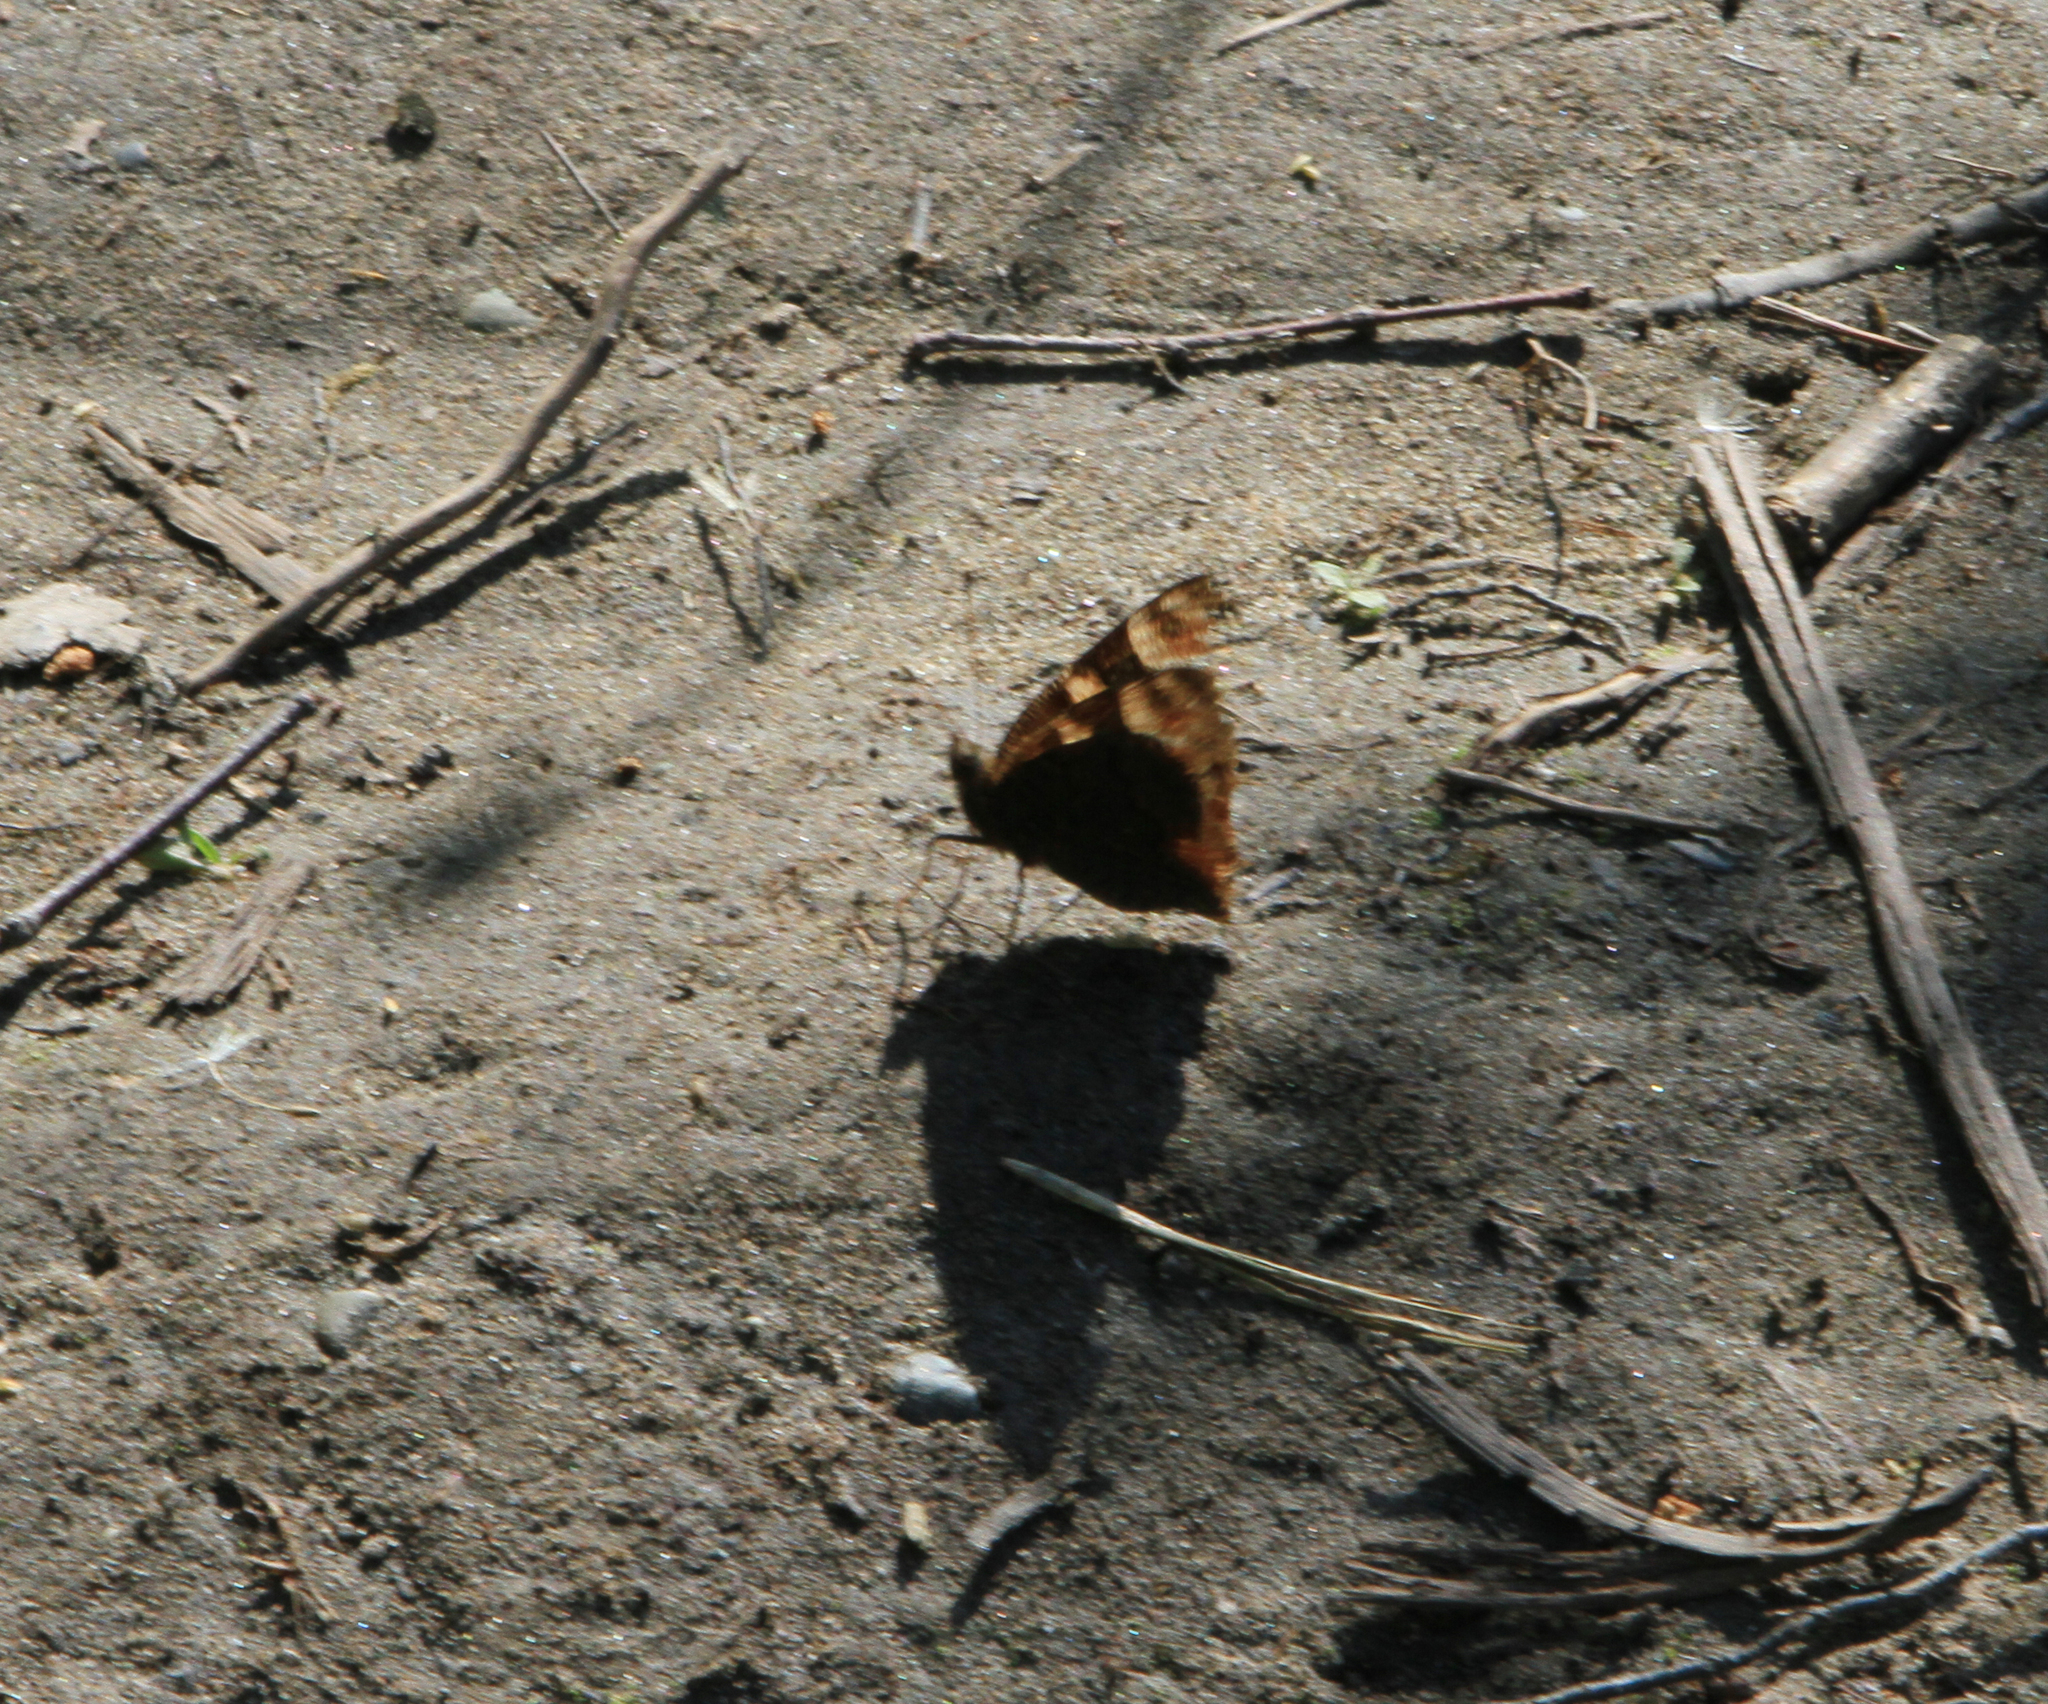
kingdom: Animalia
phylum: Arthropoda
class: Insecta
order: Lepidoptera
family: Nymphalidae
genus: Aglais
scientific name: Aglais io
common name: Peacock
